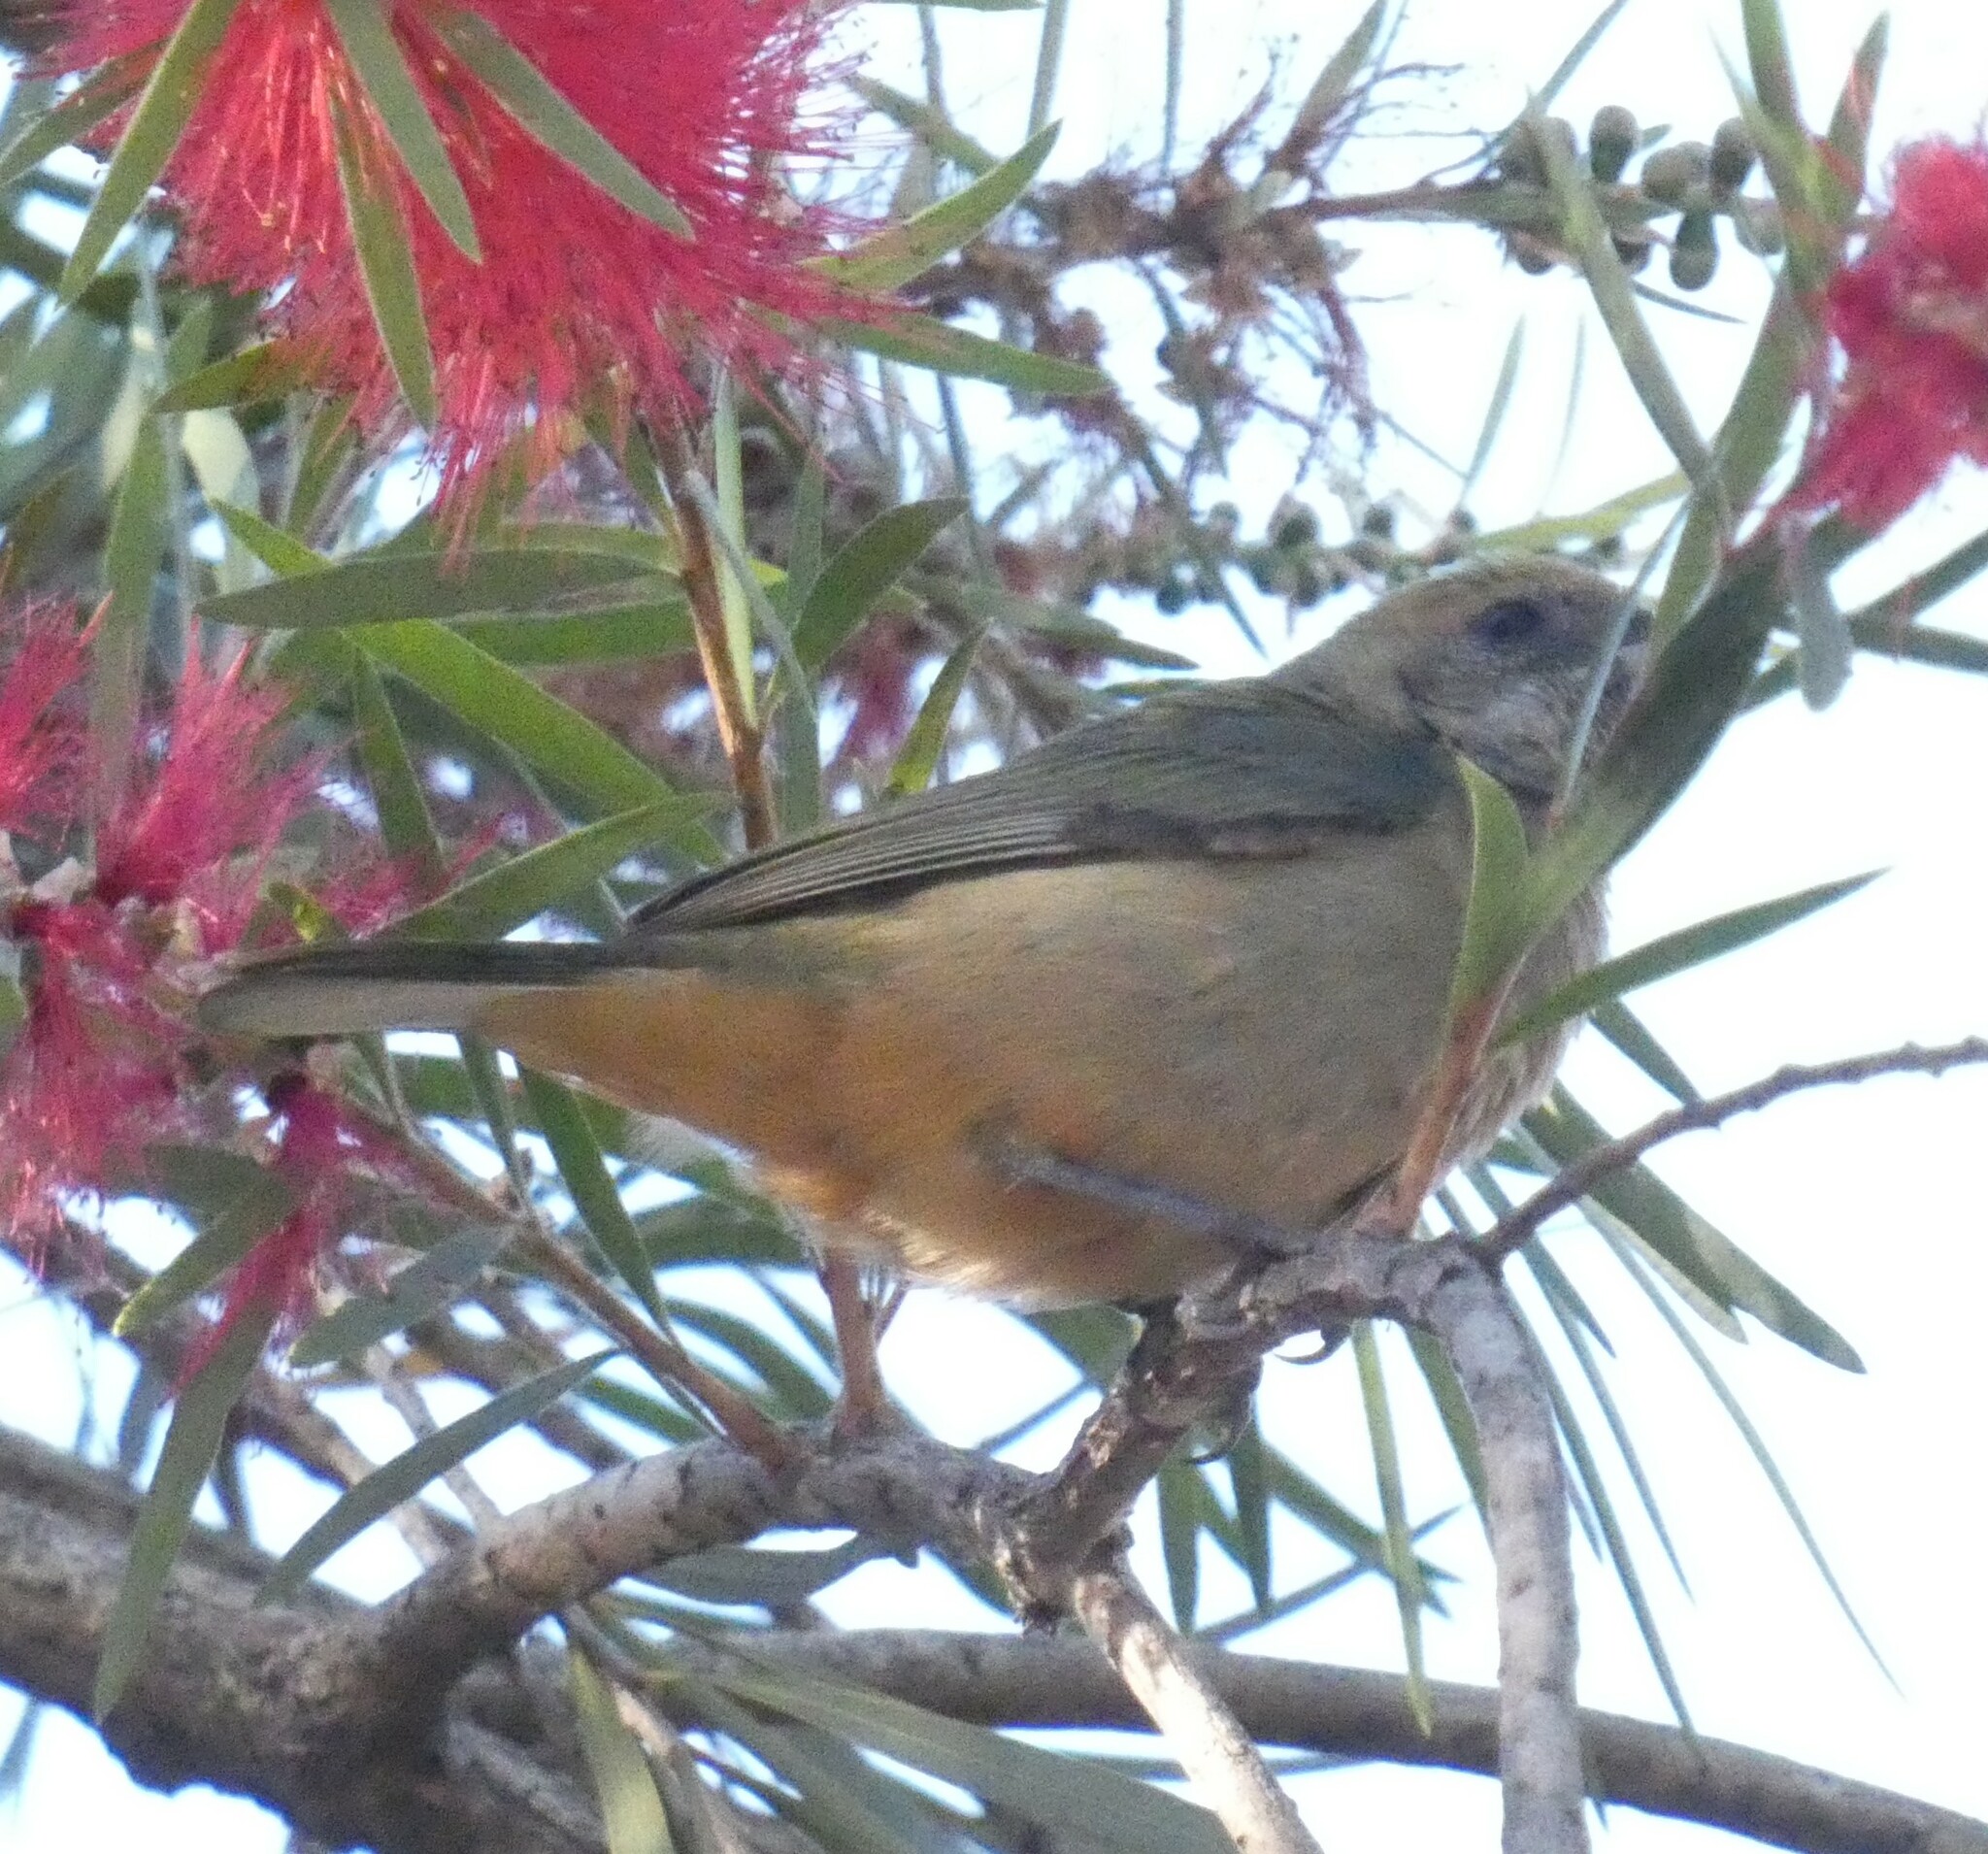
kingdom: Animalia
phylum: Chordata
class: Aves
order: Passeriformes
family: Thraupidae
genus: Stilpnia
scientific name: Stilpnia cayana
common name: Burnished-buff tanager
